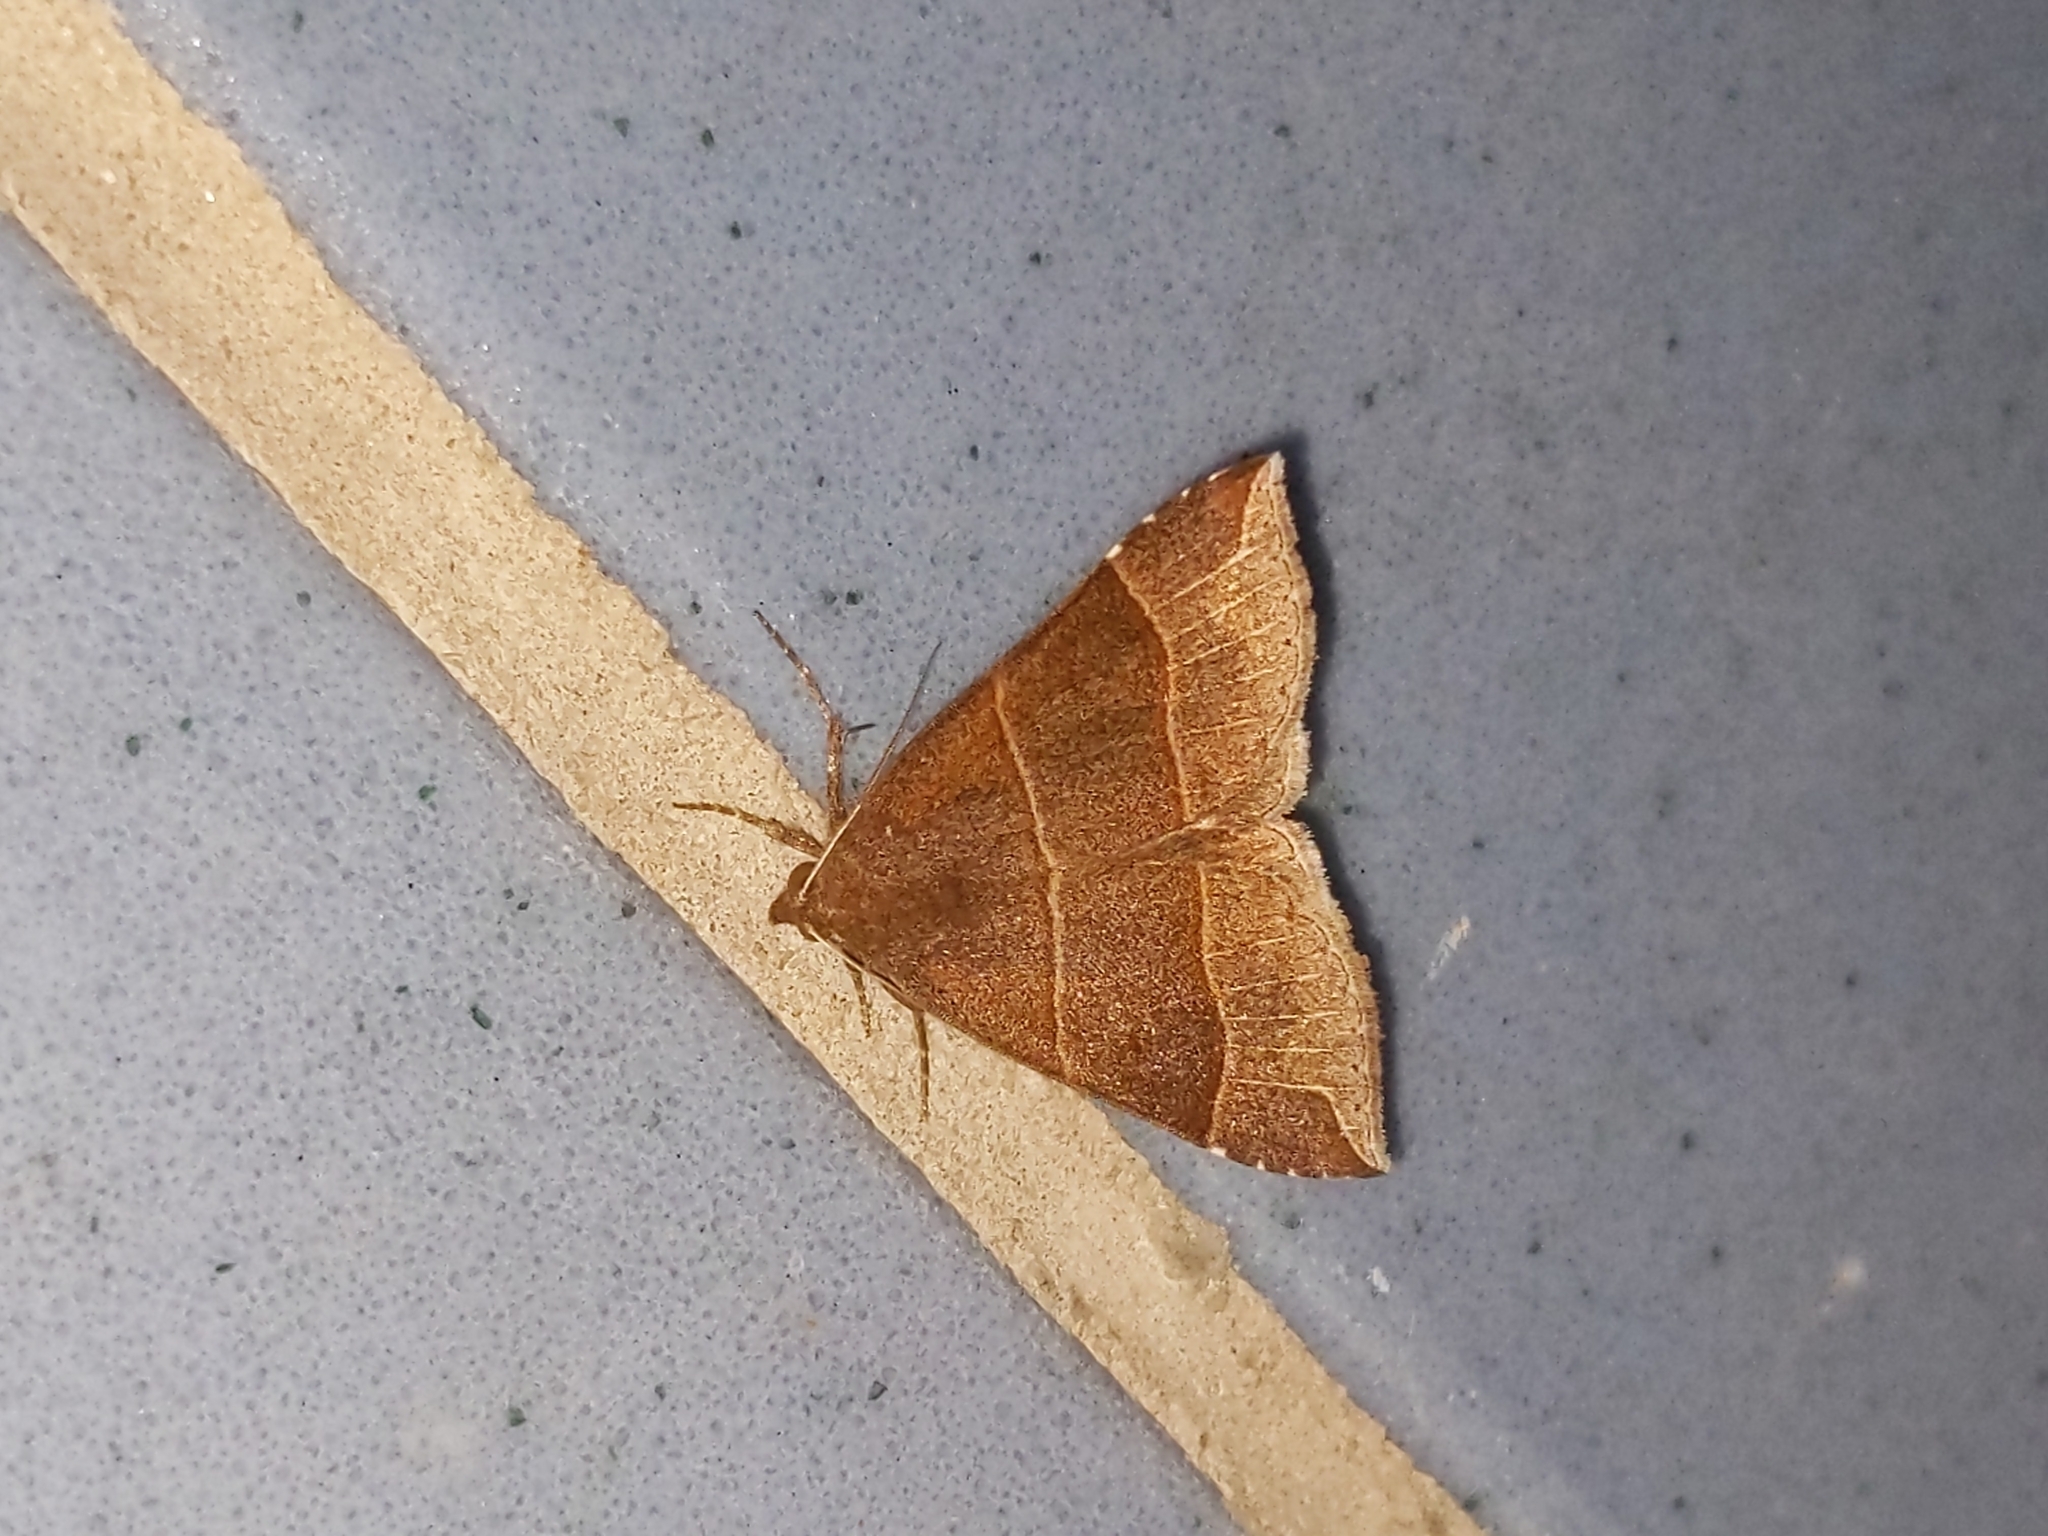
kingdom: Animalia
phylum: Arthropoda
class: Insecta
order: Lepidoptera
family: Erebidae
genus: Parallelia
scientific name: Parallelia bistriaris
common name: Maple looper moth
